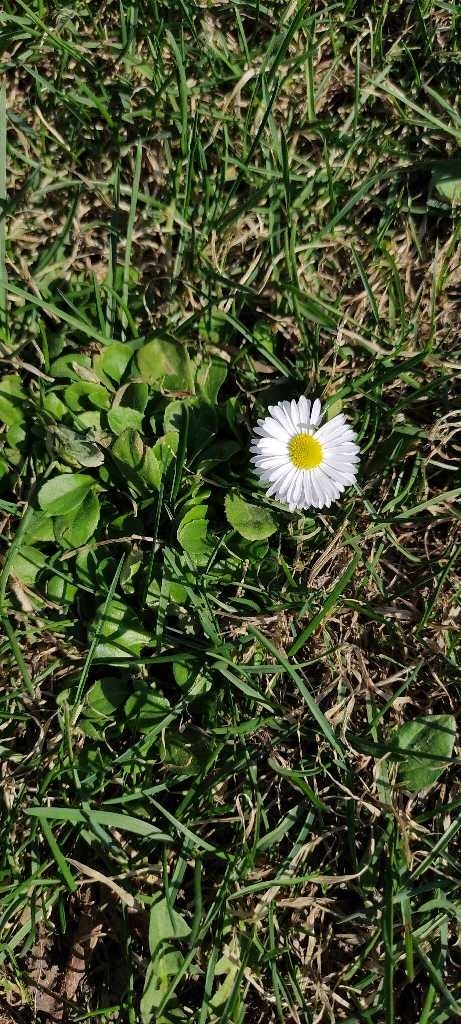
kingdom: Plantae
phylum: Tracheophyta
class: Magnoliopsida
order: Asterales
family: Asteraceae
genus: Bellis
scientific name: Bellis perennis
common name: Lawndaisy
